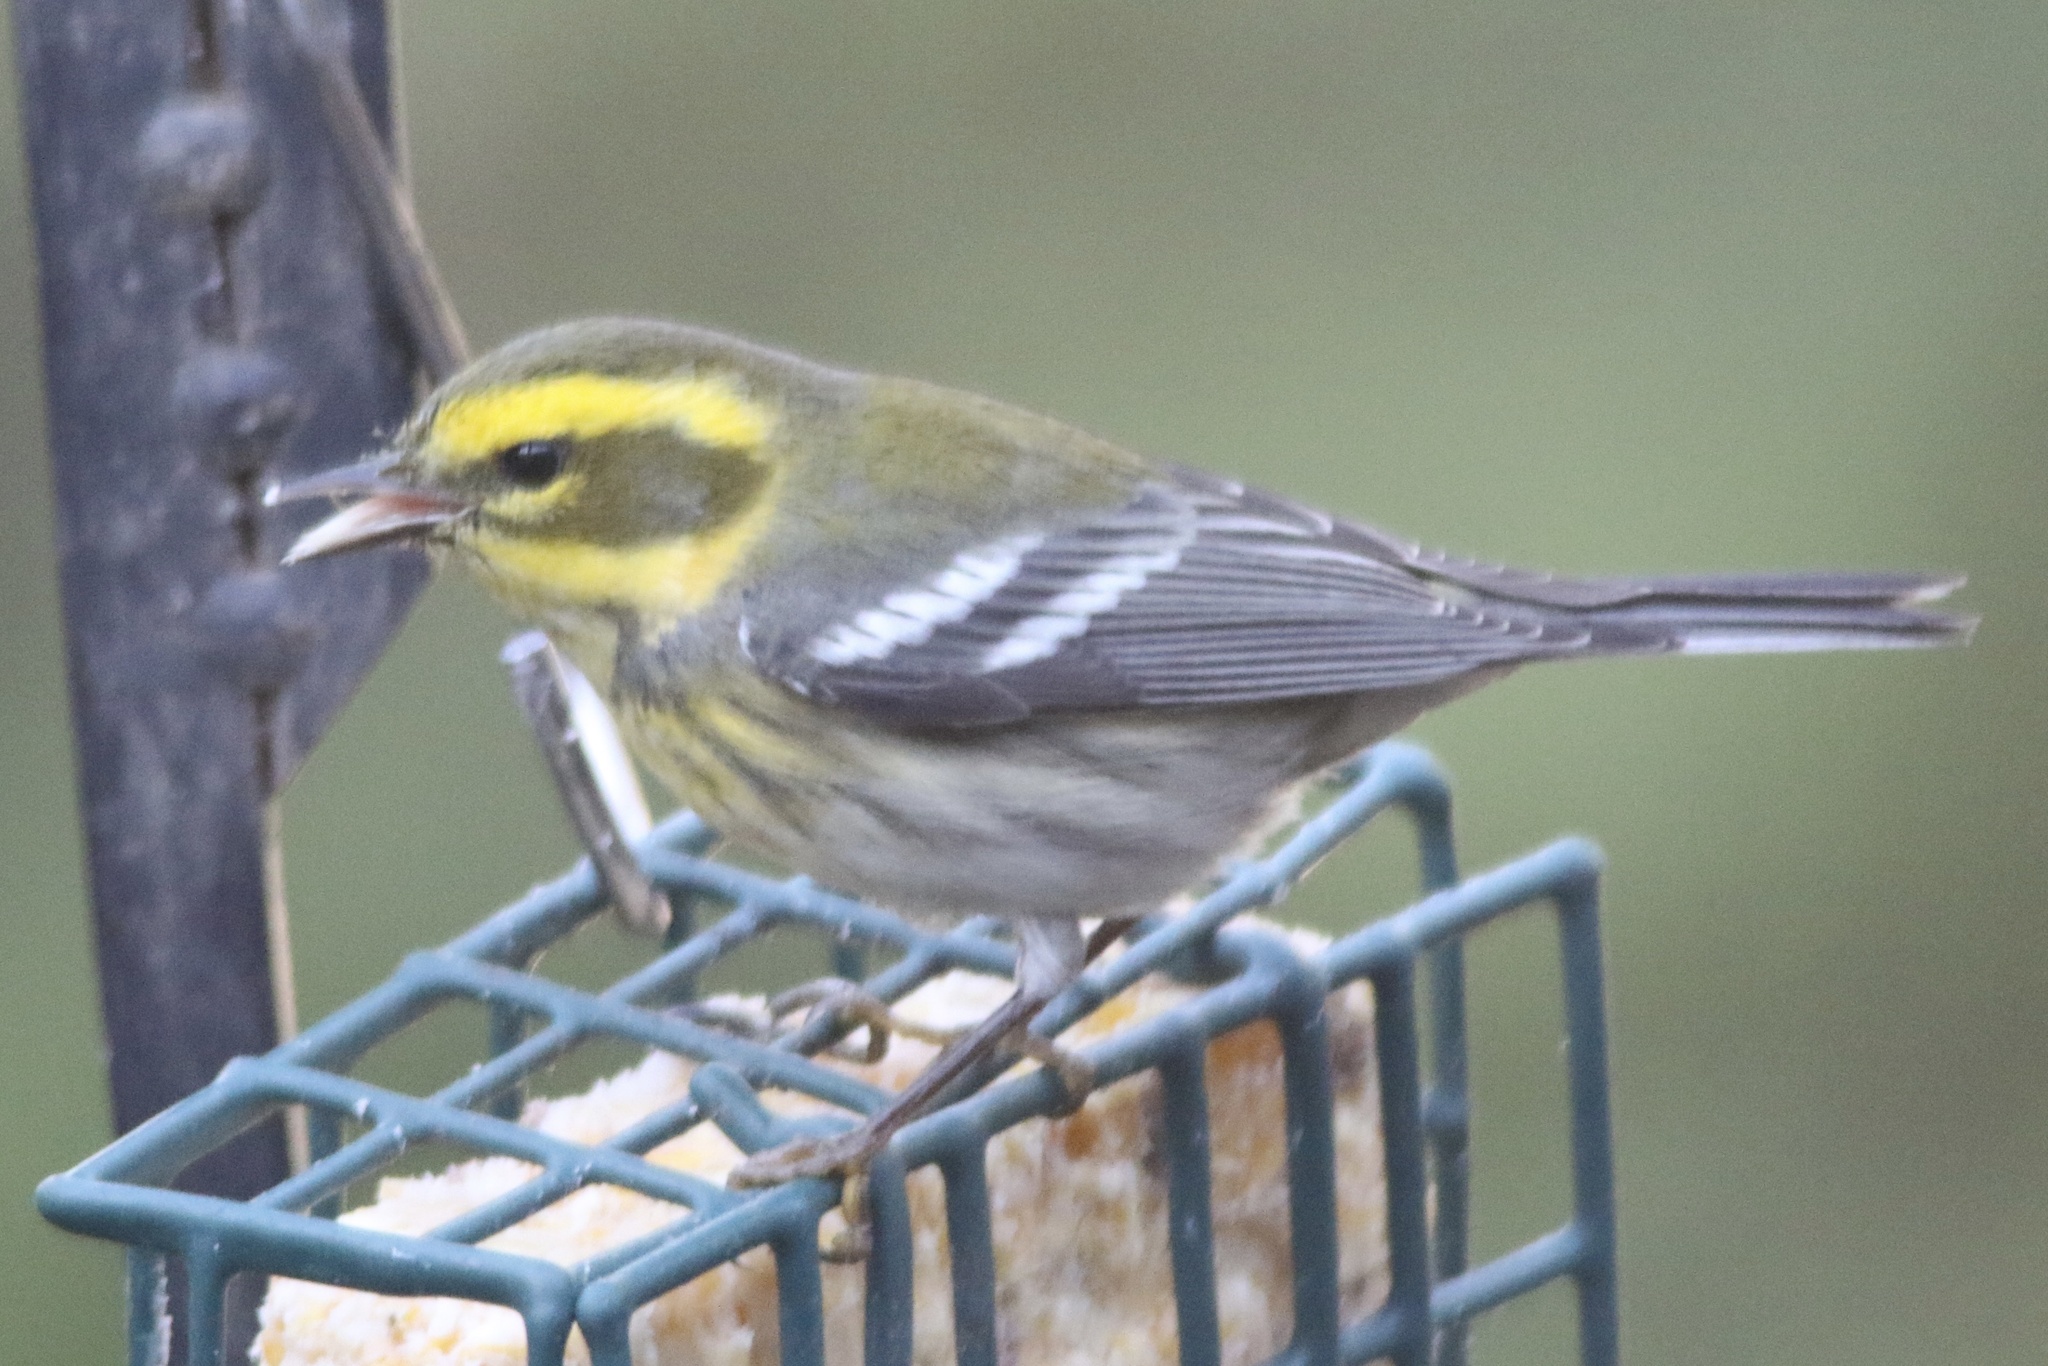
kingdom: Animalia
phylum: Chordata
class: Aves
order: Passeriformes
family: Parulidae
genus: Setophaga
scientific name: Setophaga townsendi
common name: Townsend's warbler
